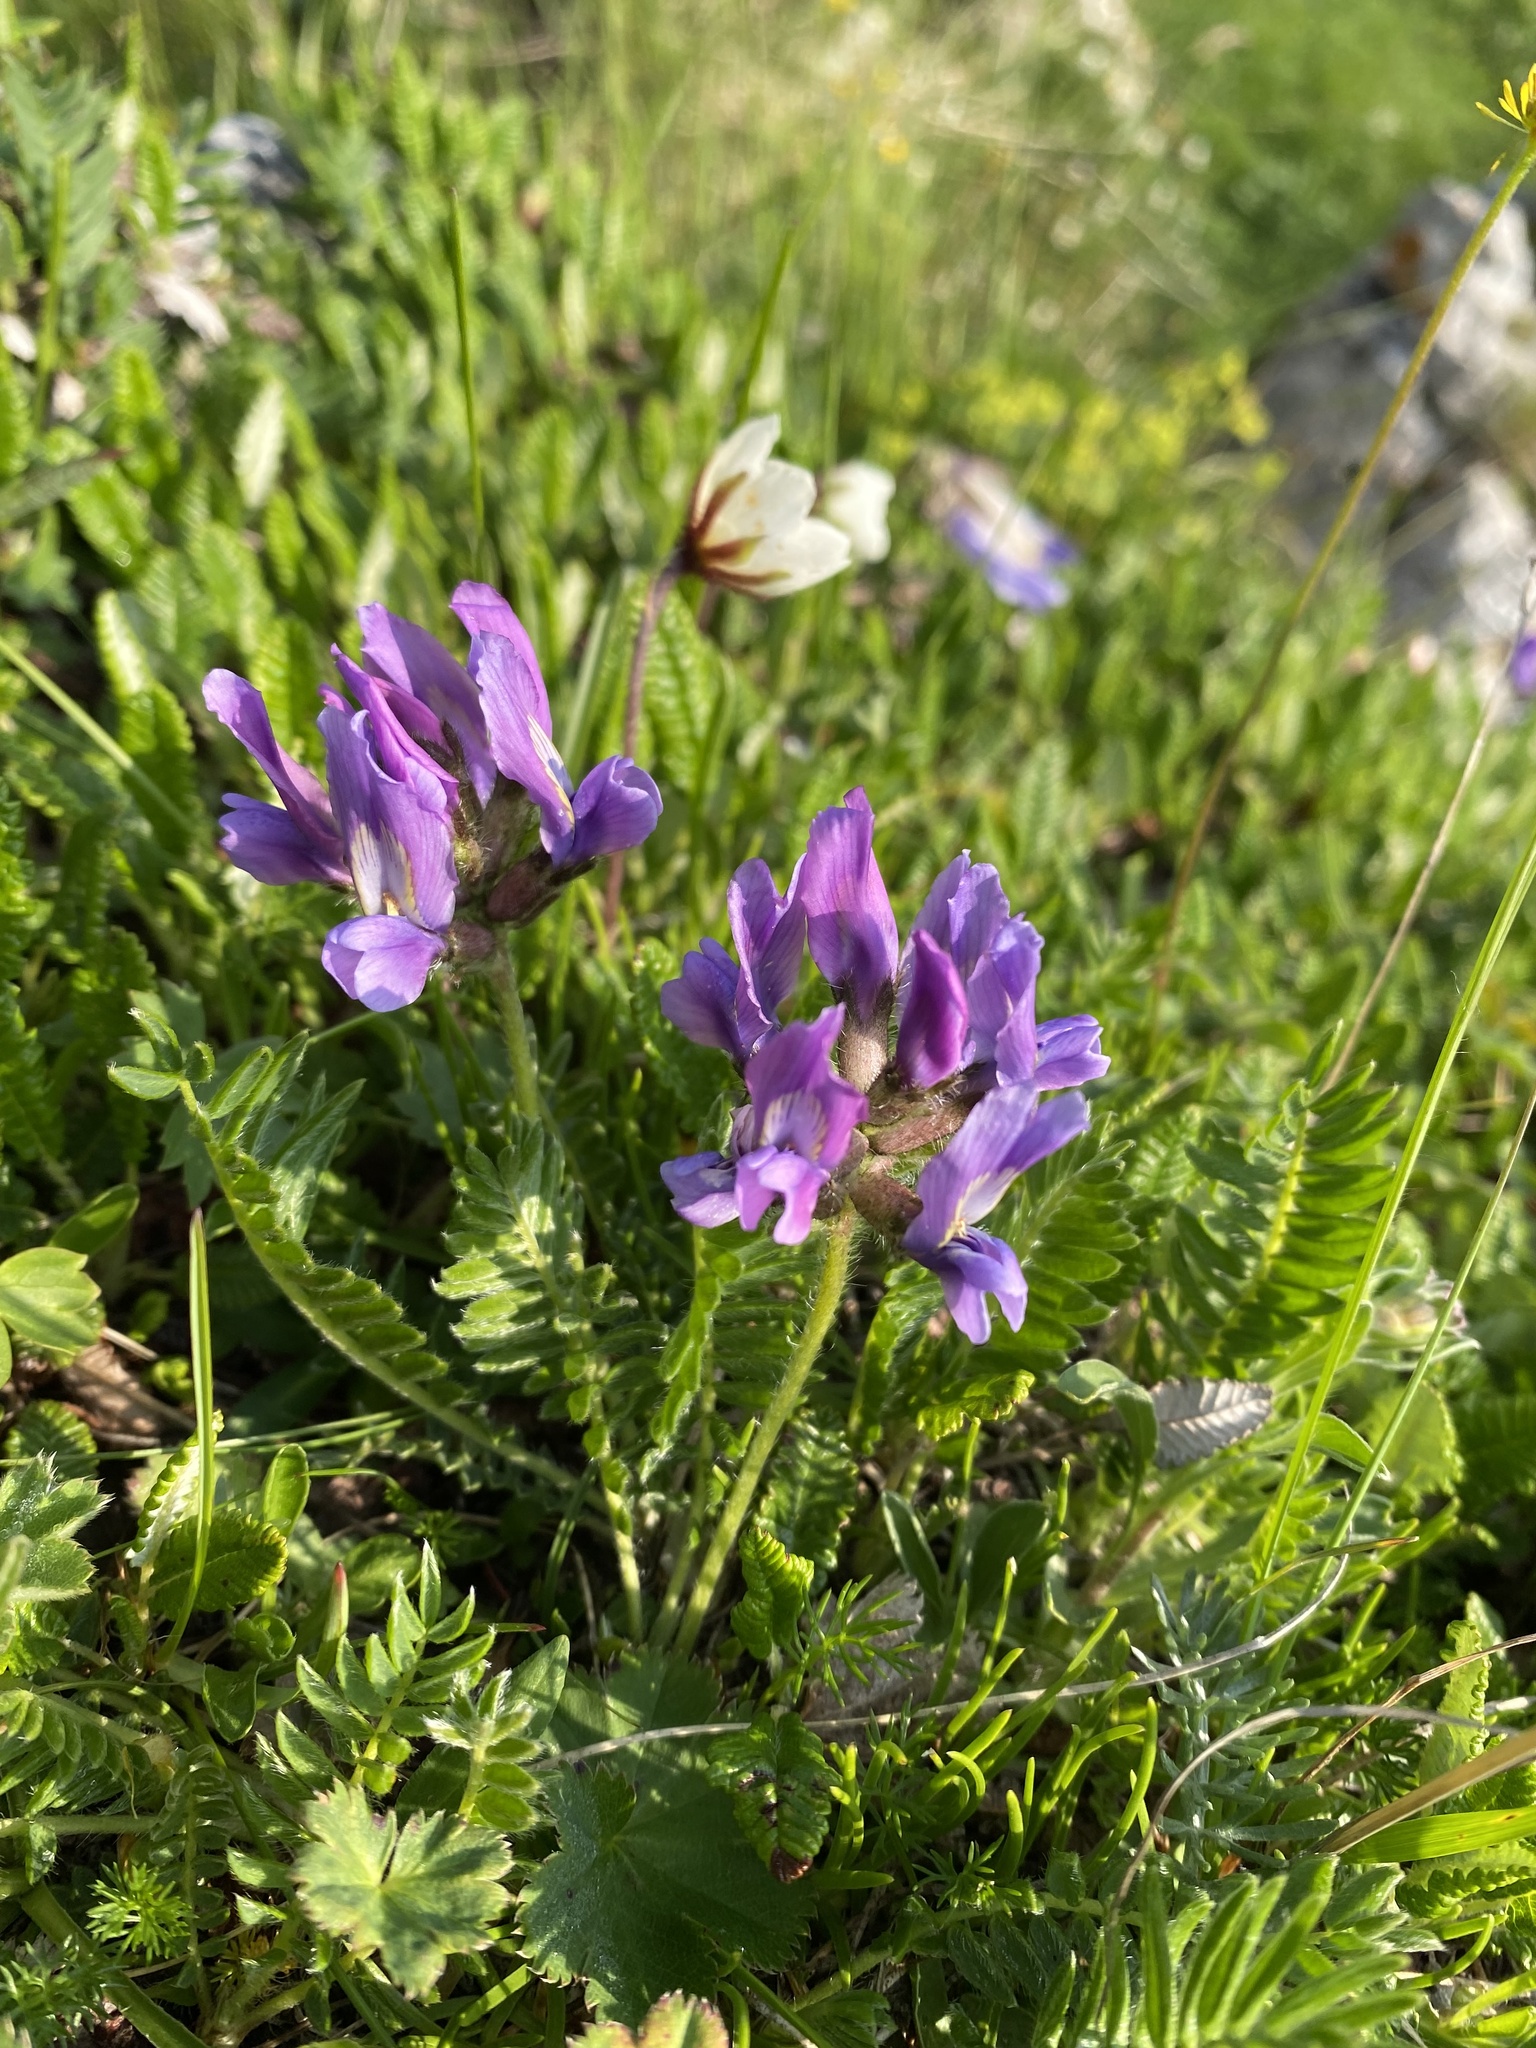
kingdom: Plantae
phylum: Tracheophyta
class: Magnoliopsida
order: Fabales
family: Fabaceae
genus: Oxytropis
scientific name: Oxytropis lazica
